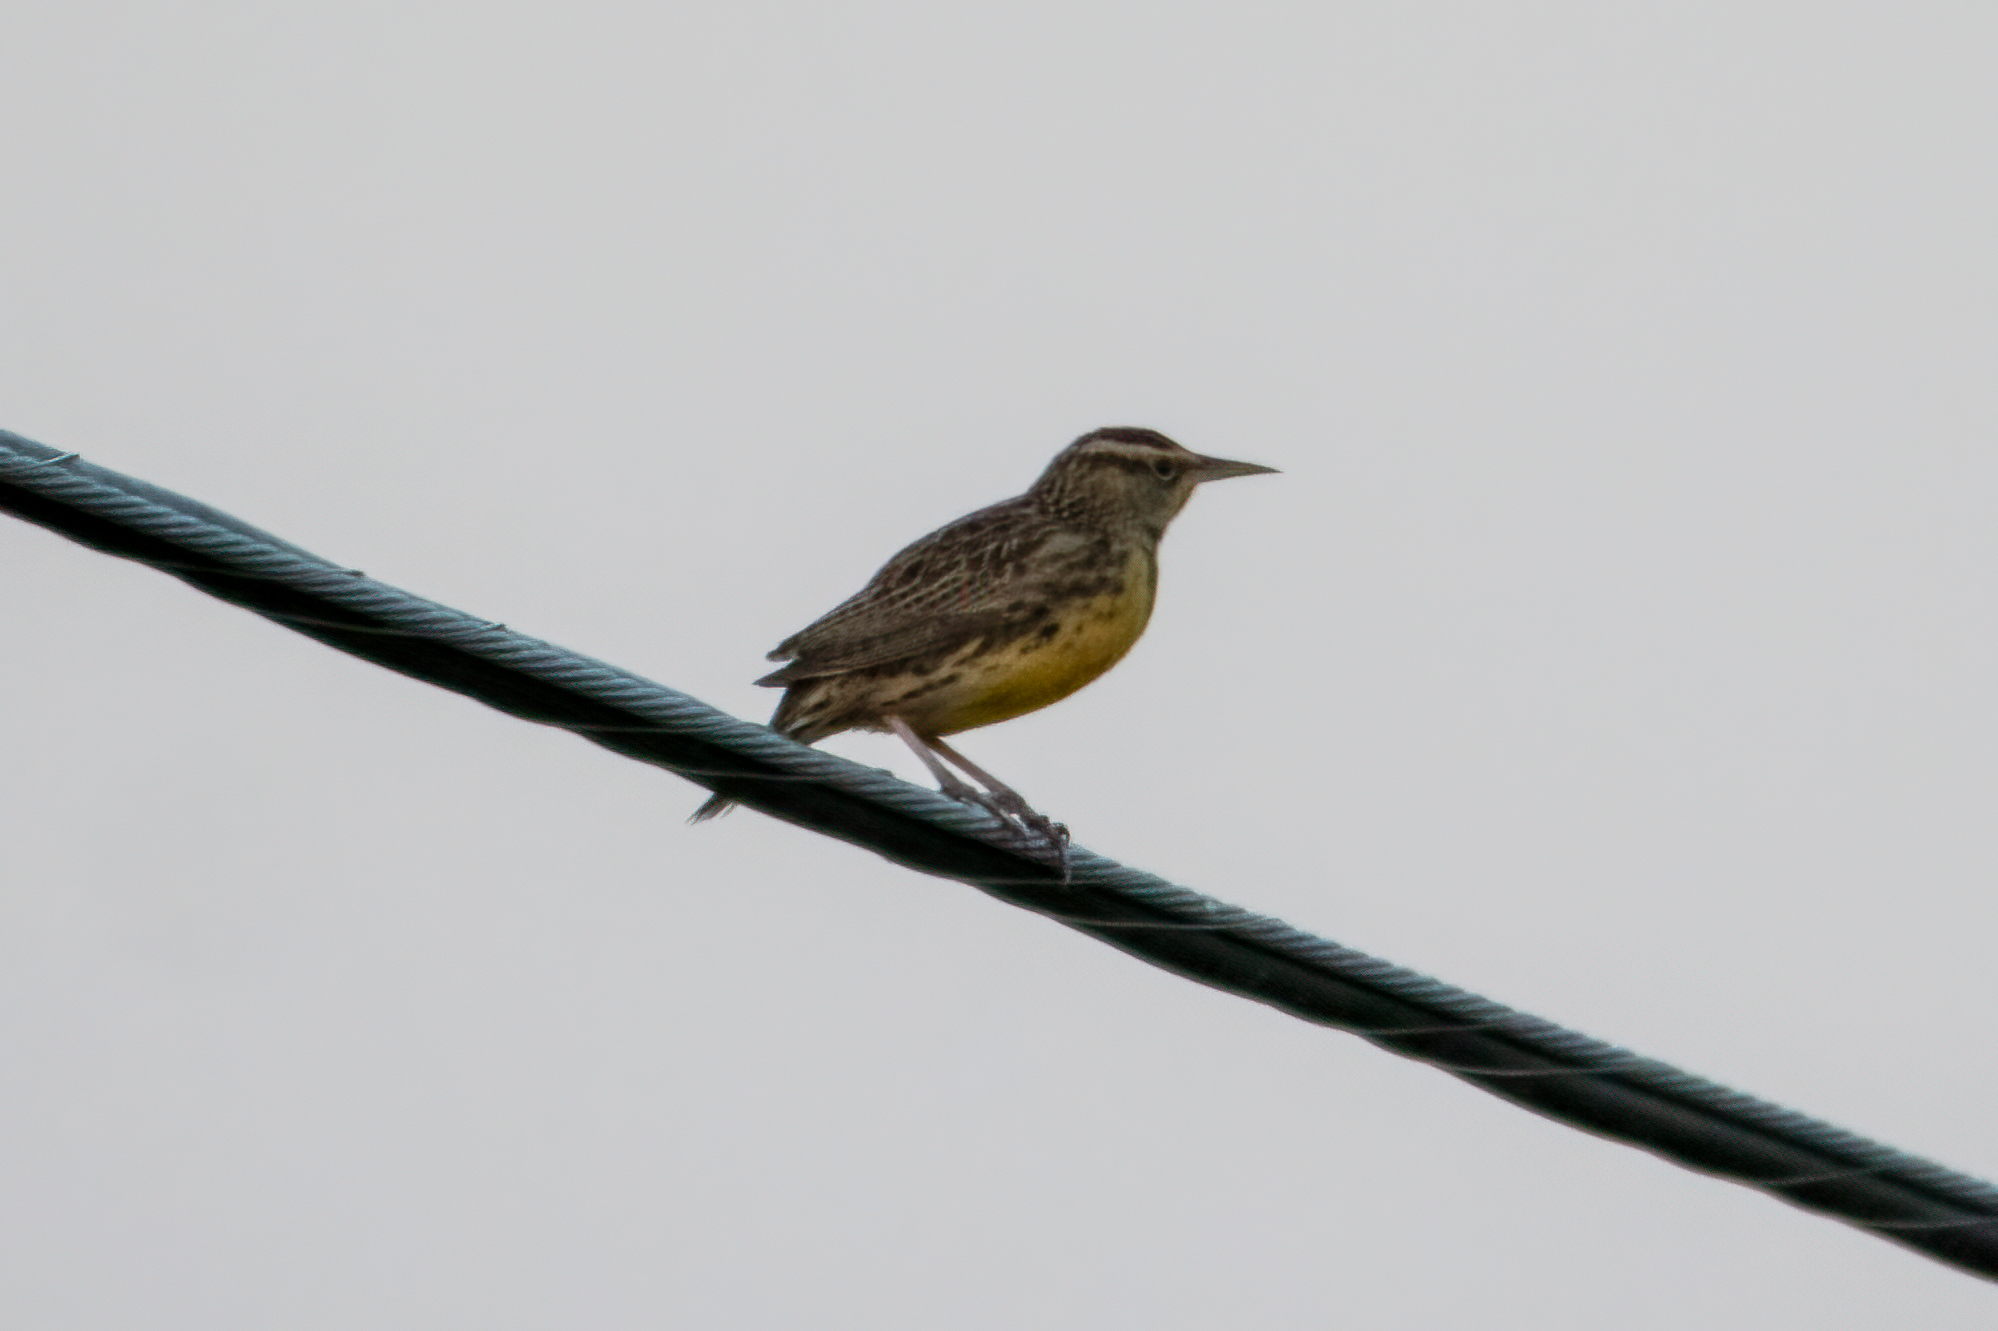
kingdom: Animalia
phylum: Chordata
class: Aves
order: Passeriformes
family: Icteridae
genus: Sturnella
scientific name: Sturnella neglecta
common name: Western meadowlark
